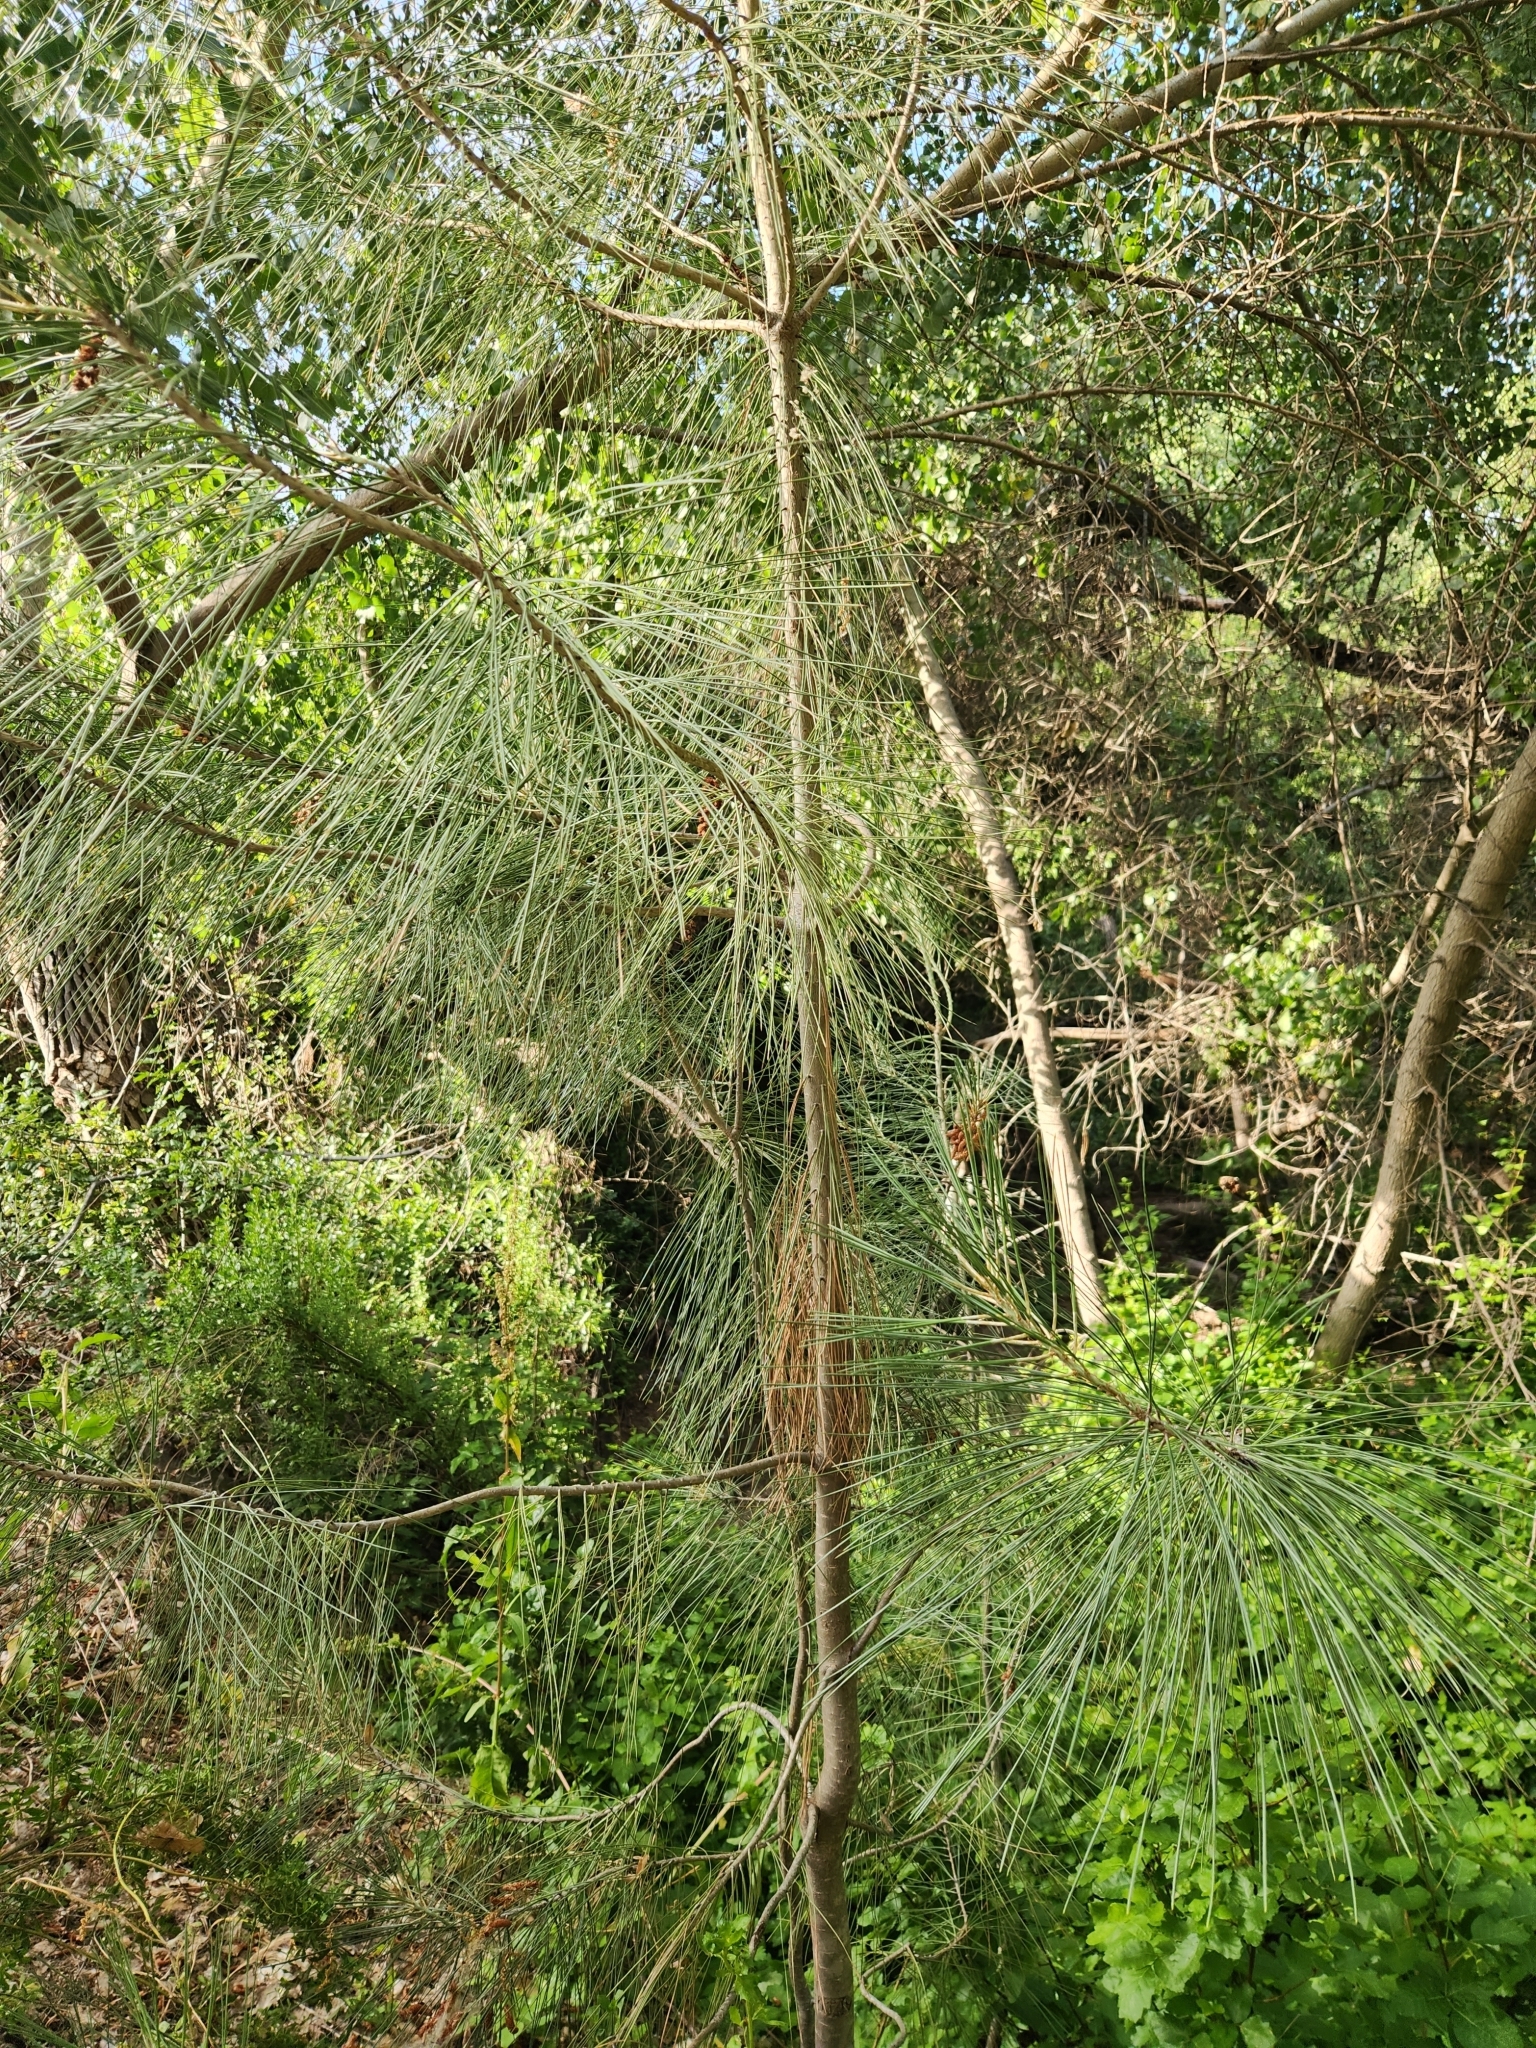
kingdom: Plantae
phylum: Tracheophyta
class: Pinopsida
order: Pinales
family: Pinaceae
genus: Pinus
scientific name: Pinus sabiniana
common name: Bull pine
